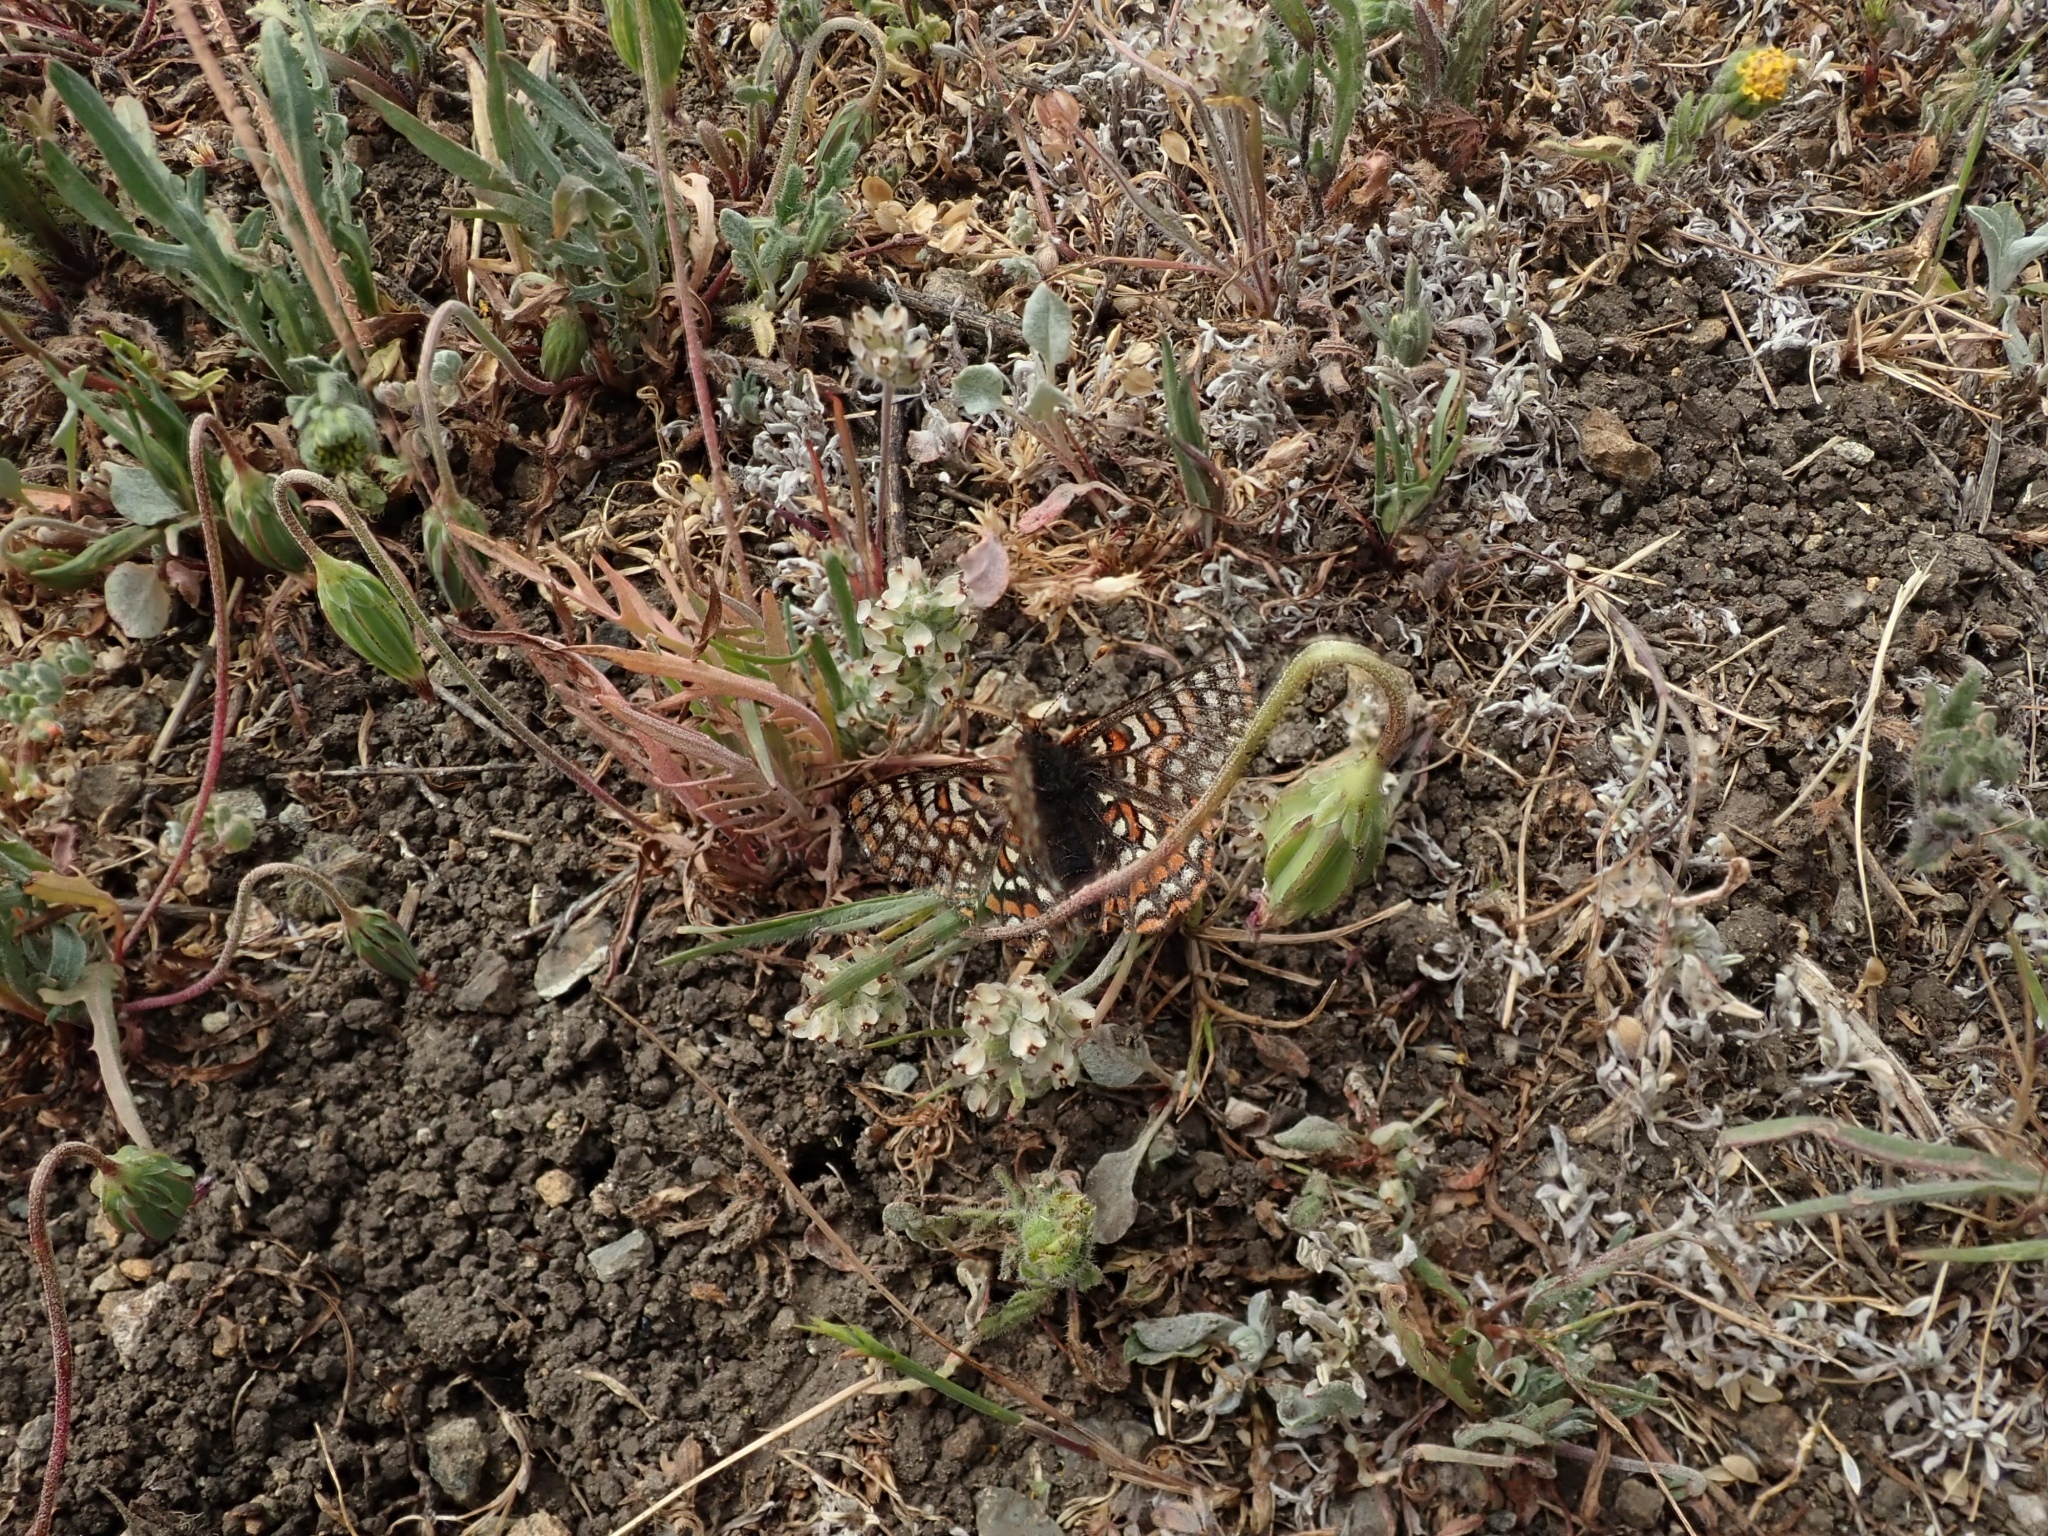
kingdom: Animalia
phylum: Arthropoda
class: Insecta
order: Lepidoptera
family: Nymphalidae
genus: Occidryas
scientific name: Occidryas editha
